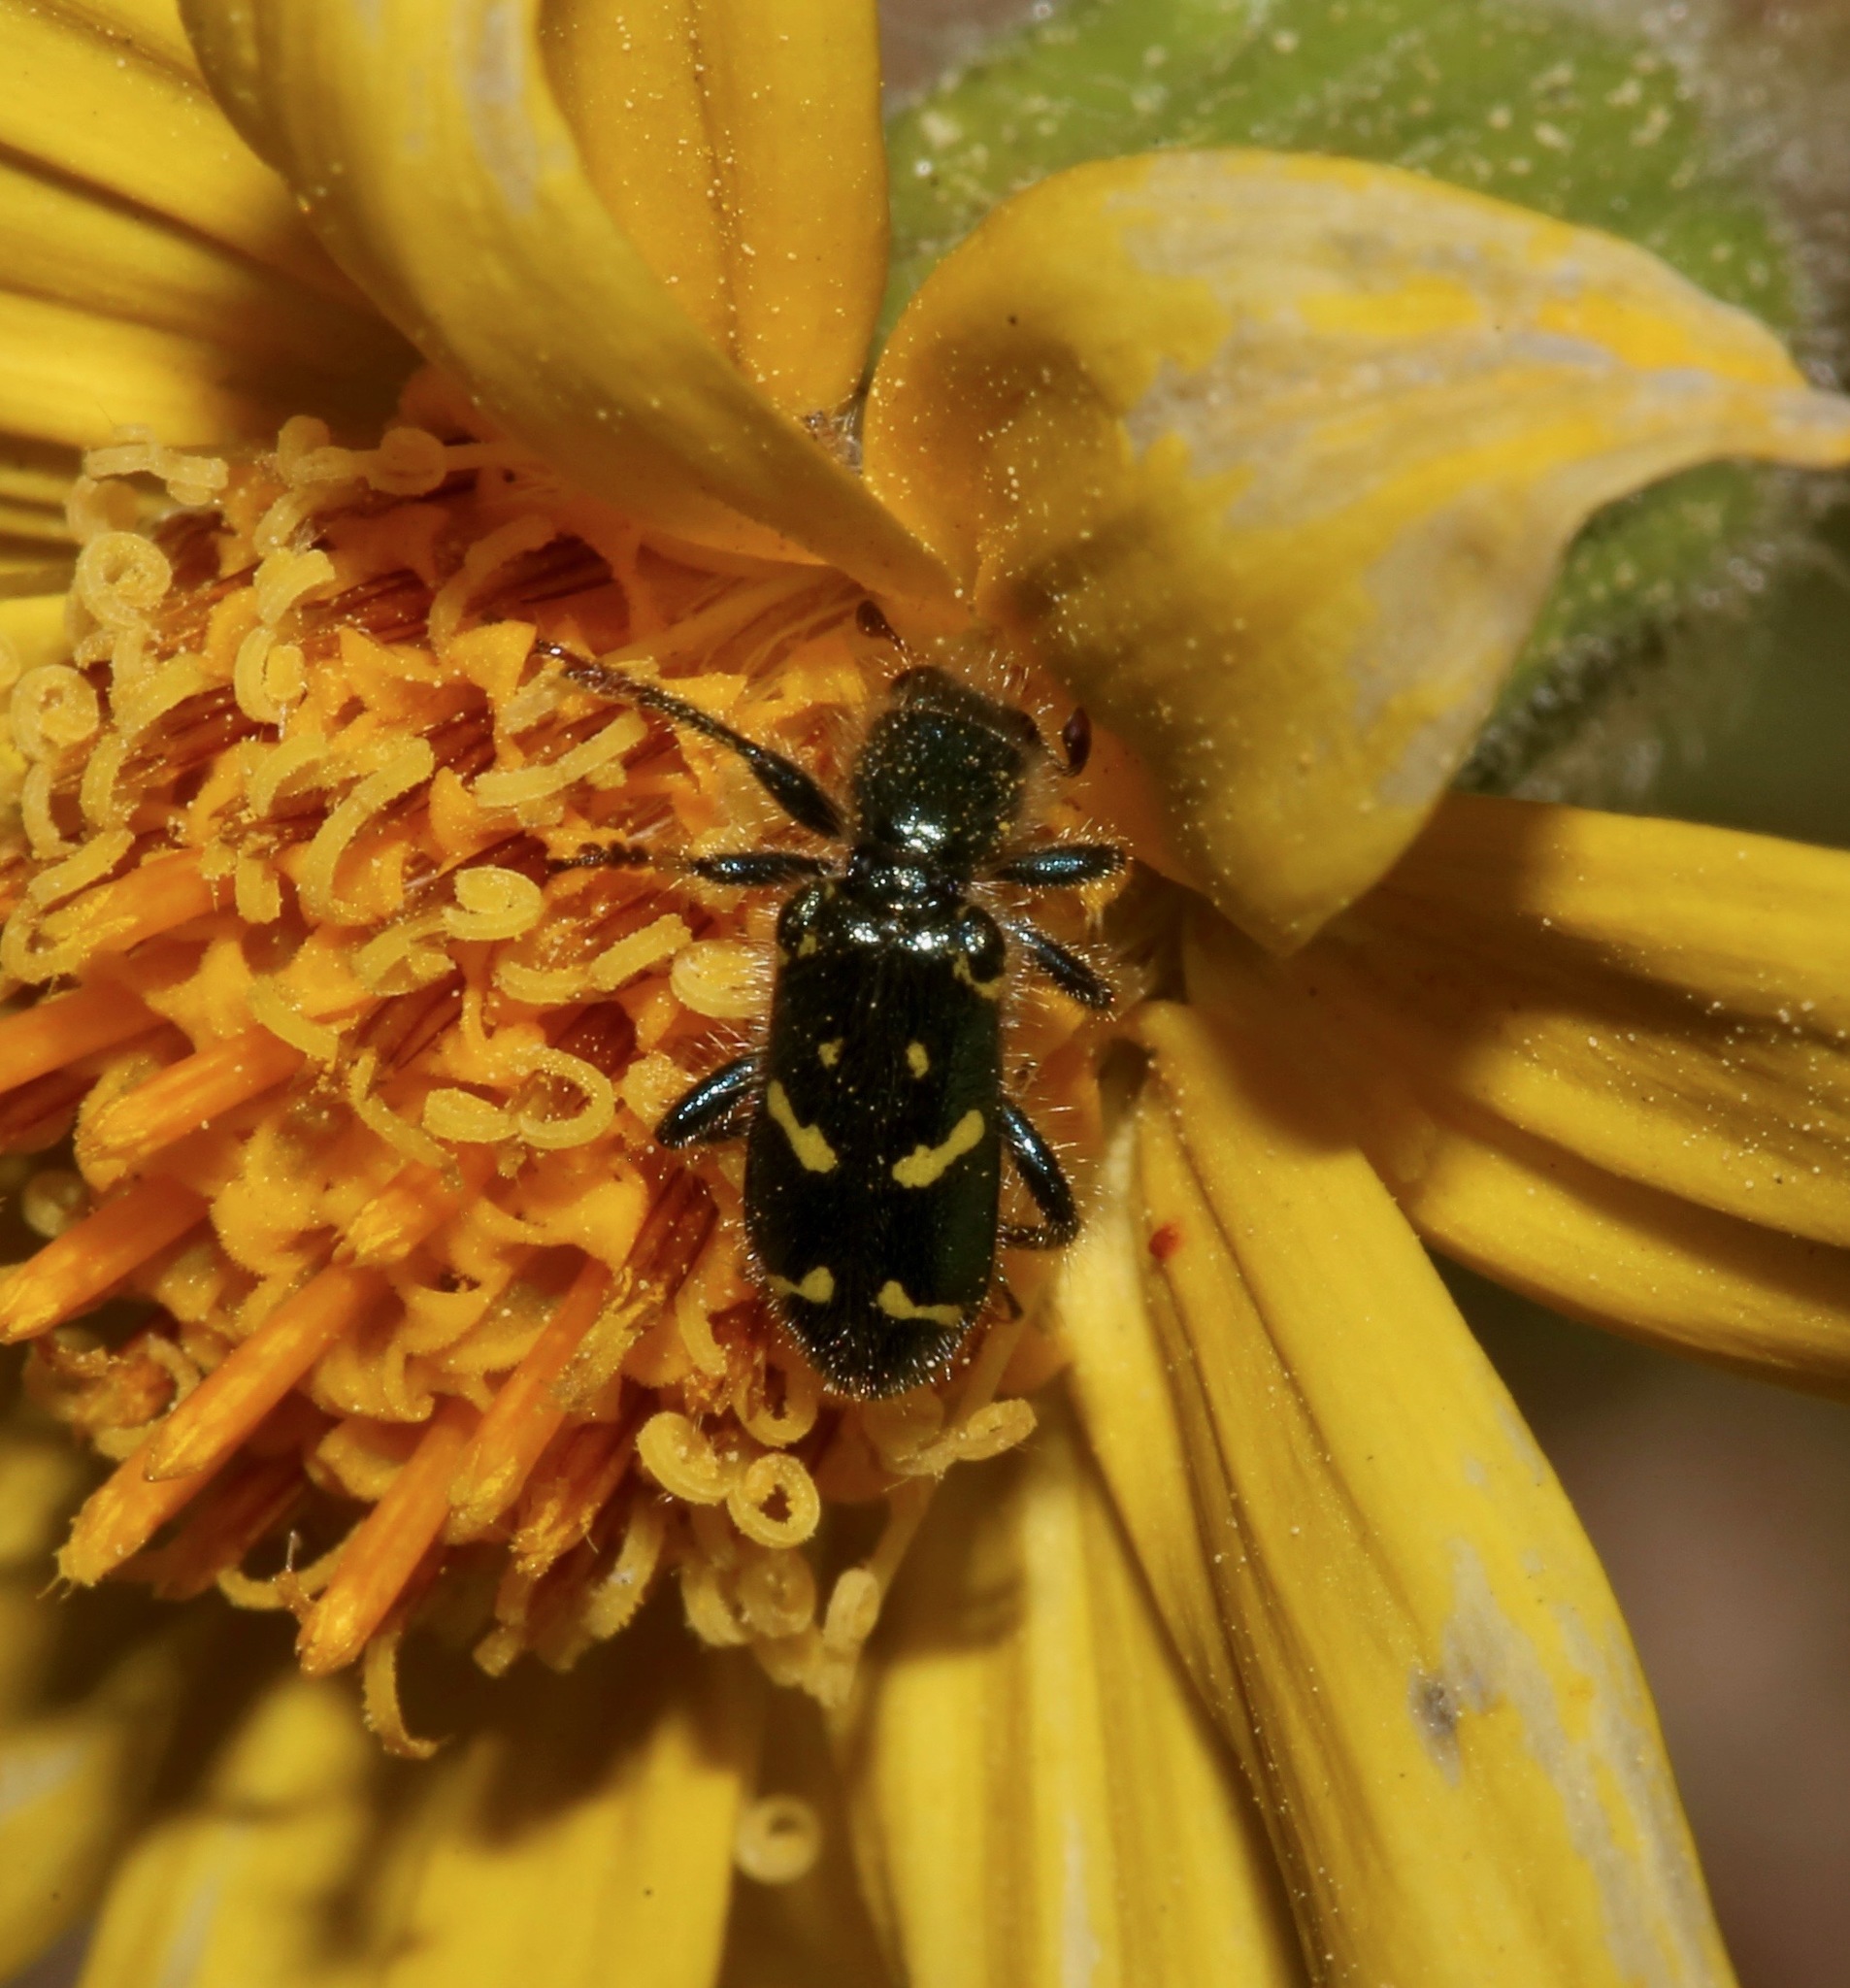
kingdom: Animalia
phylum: Arthropoda
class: Insecta
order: Coleoptera
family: Cleridae
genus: Trichodes
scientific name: Trichodes ornatus
